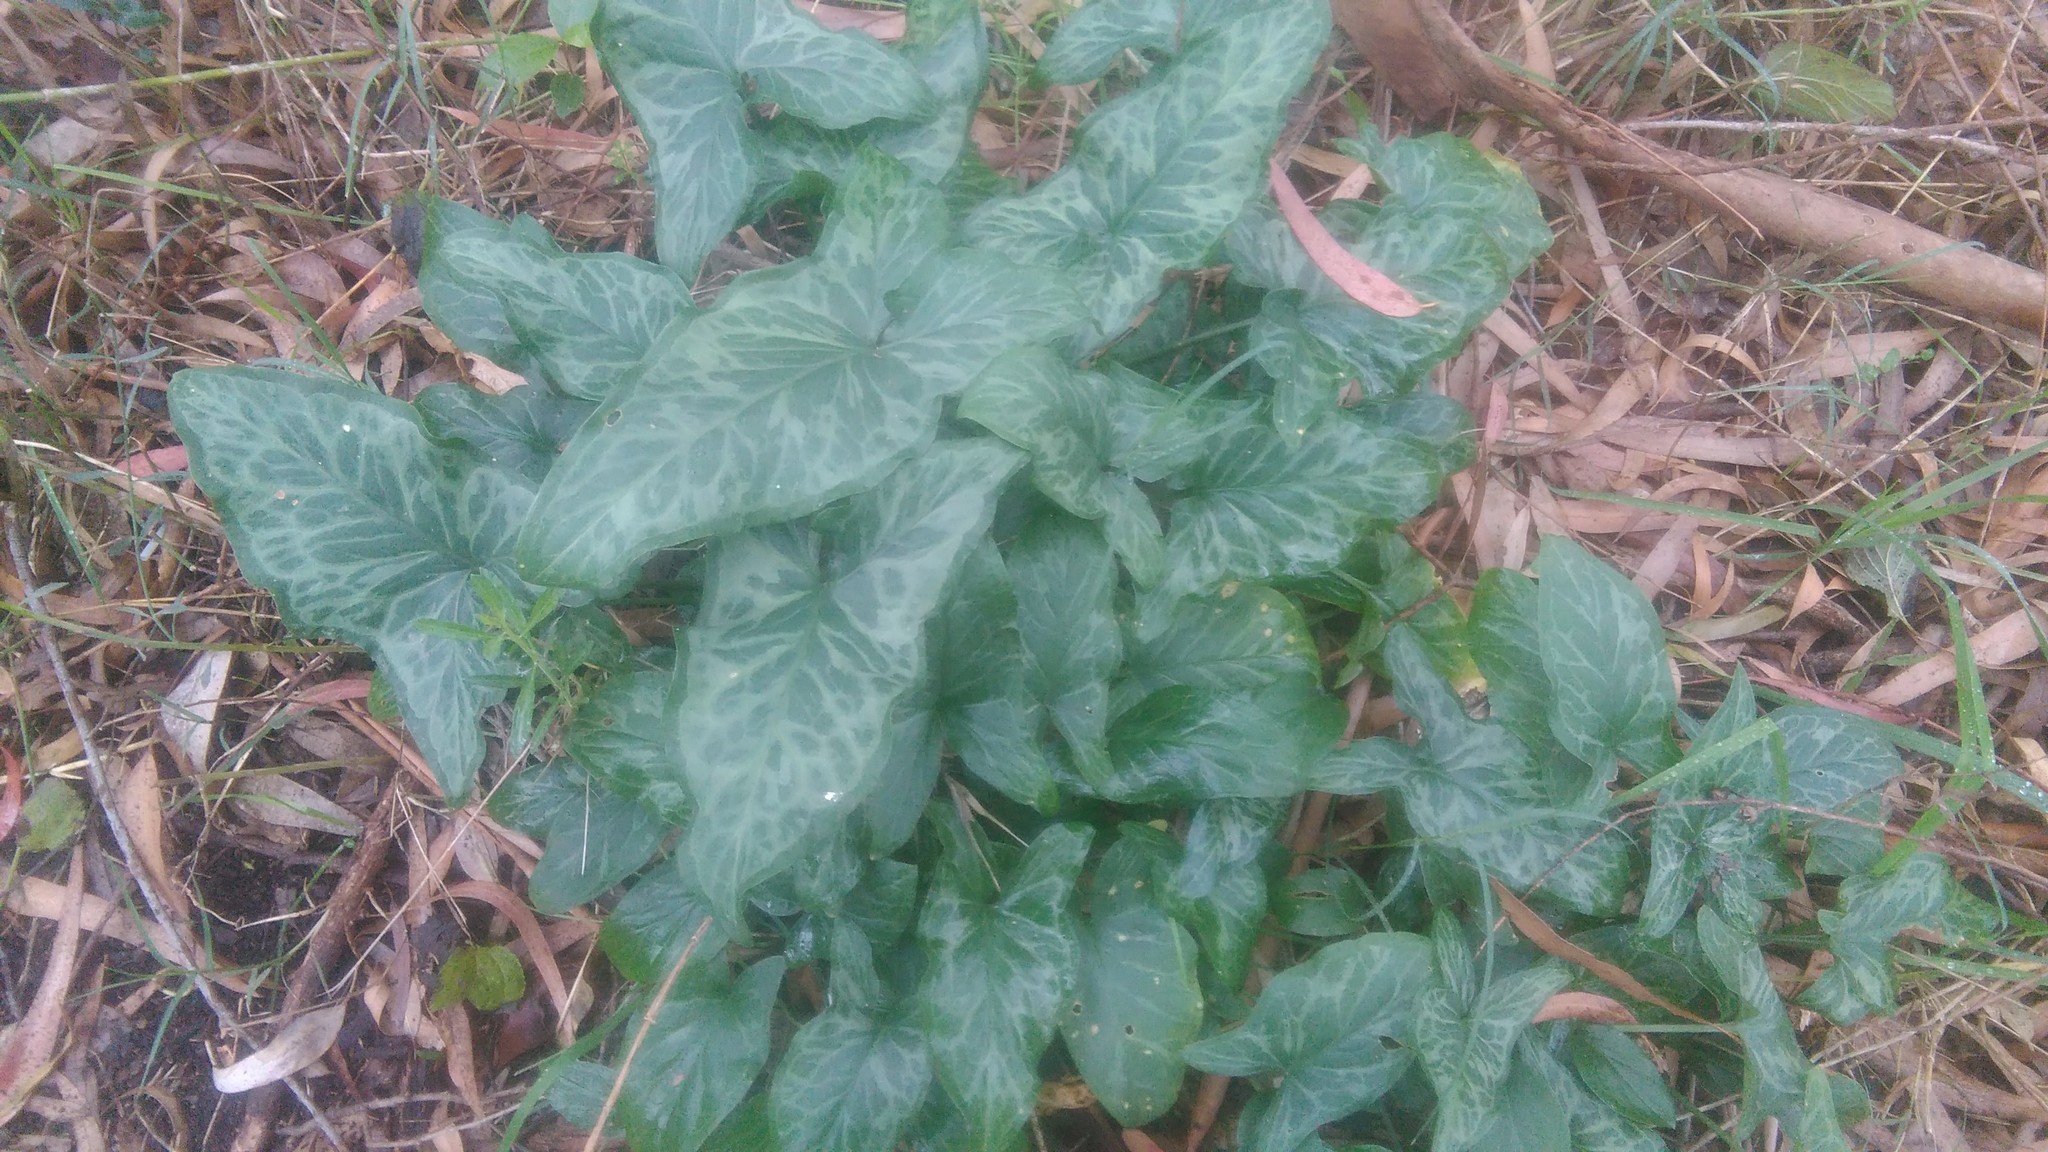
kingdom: Plantae
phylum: Tracheophyta
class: Liliopsida
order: Alismatales
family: Araceae
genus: Arum
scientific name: Arum italicum
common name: Italian lords-and-ladies
